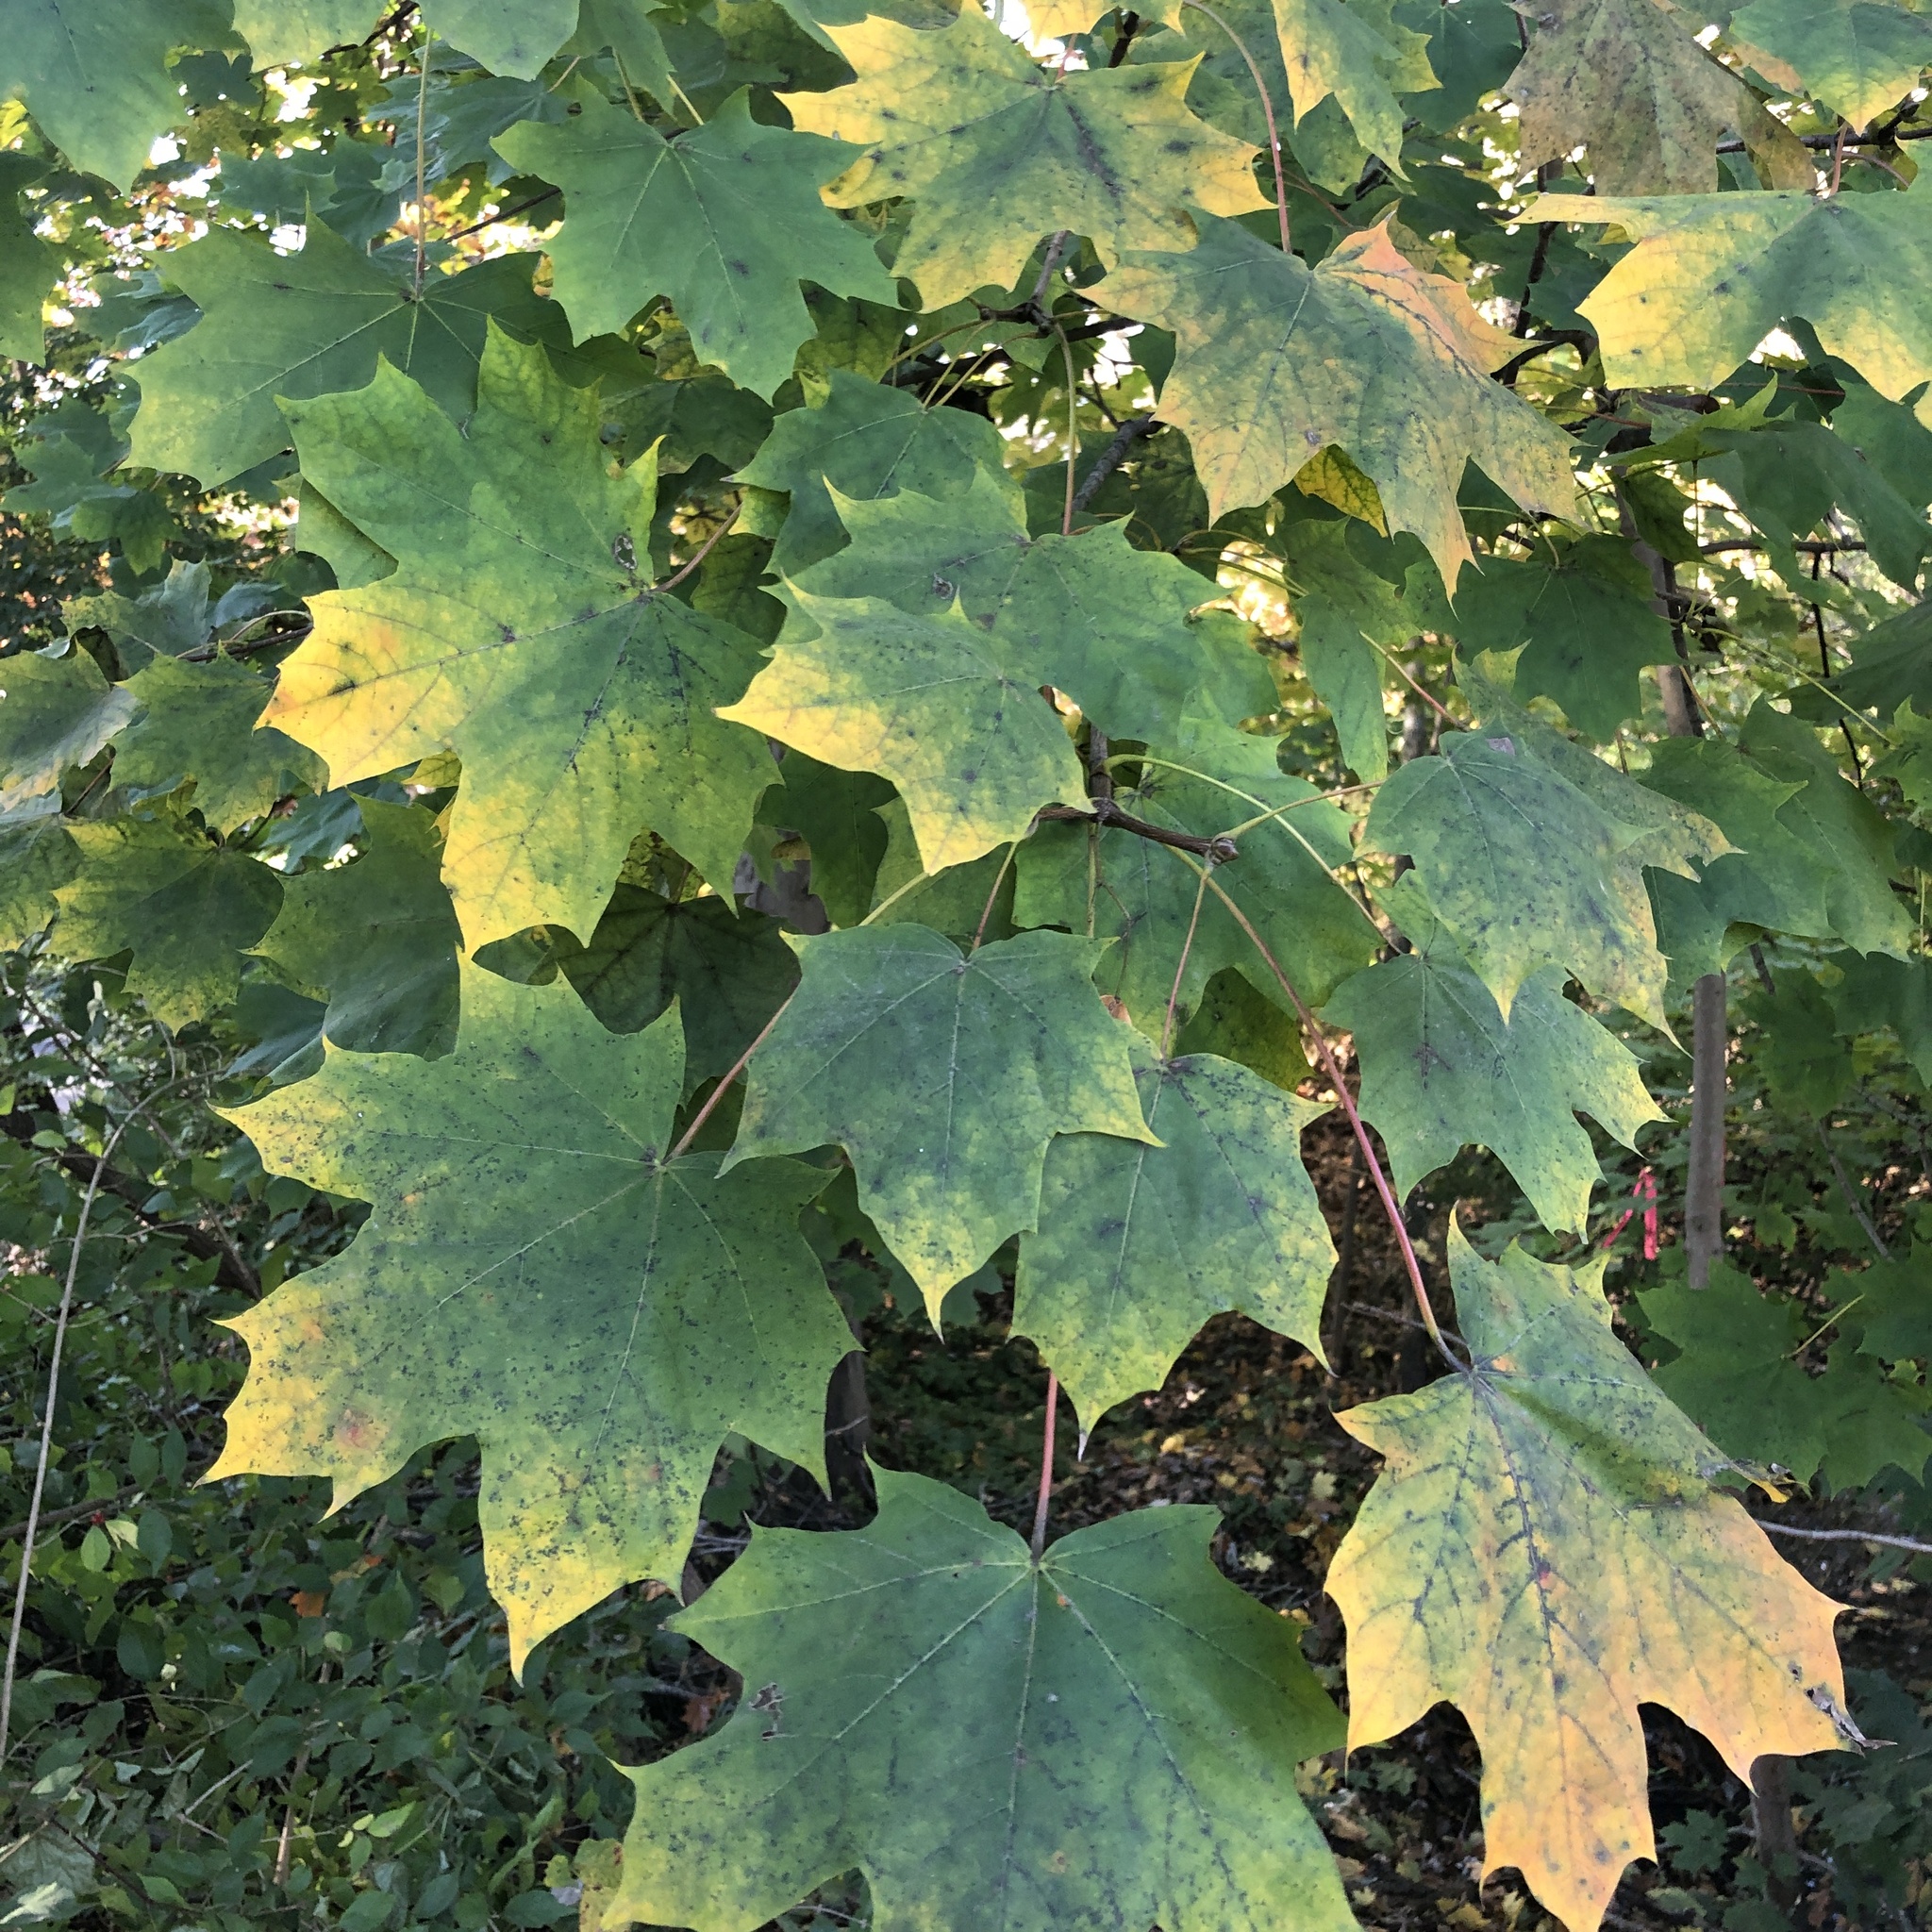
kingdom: Plantae
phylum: Tracheophyta
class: Magnoliopsida
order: Sapindales
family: Sapindaceae
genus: Acer
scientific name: Acer platanoides
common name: Norway maple
